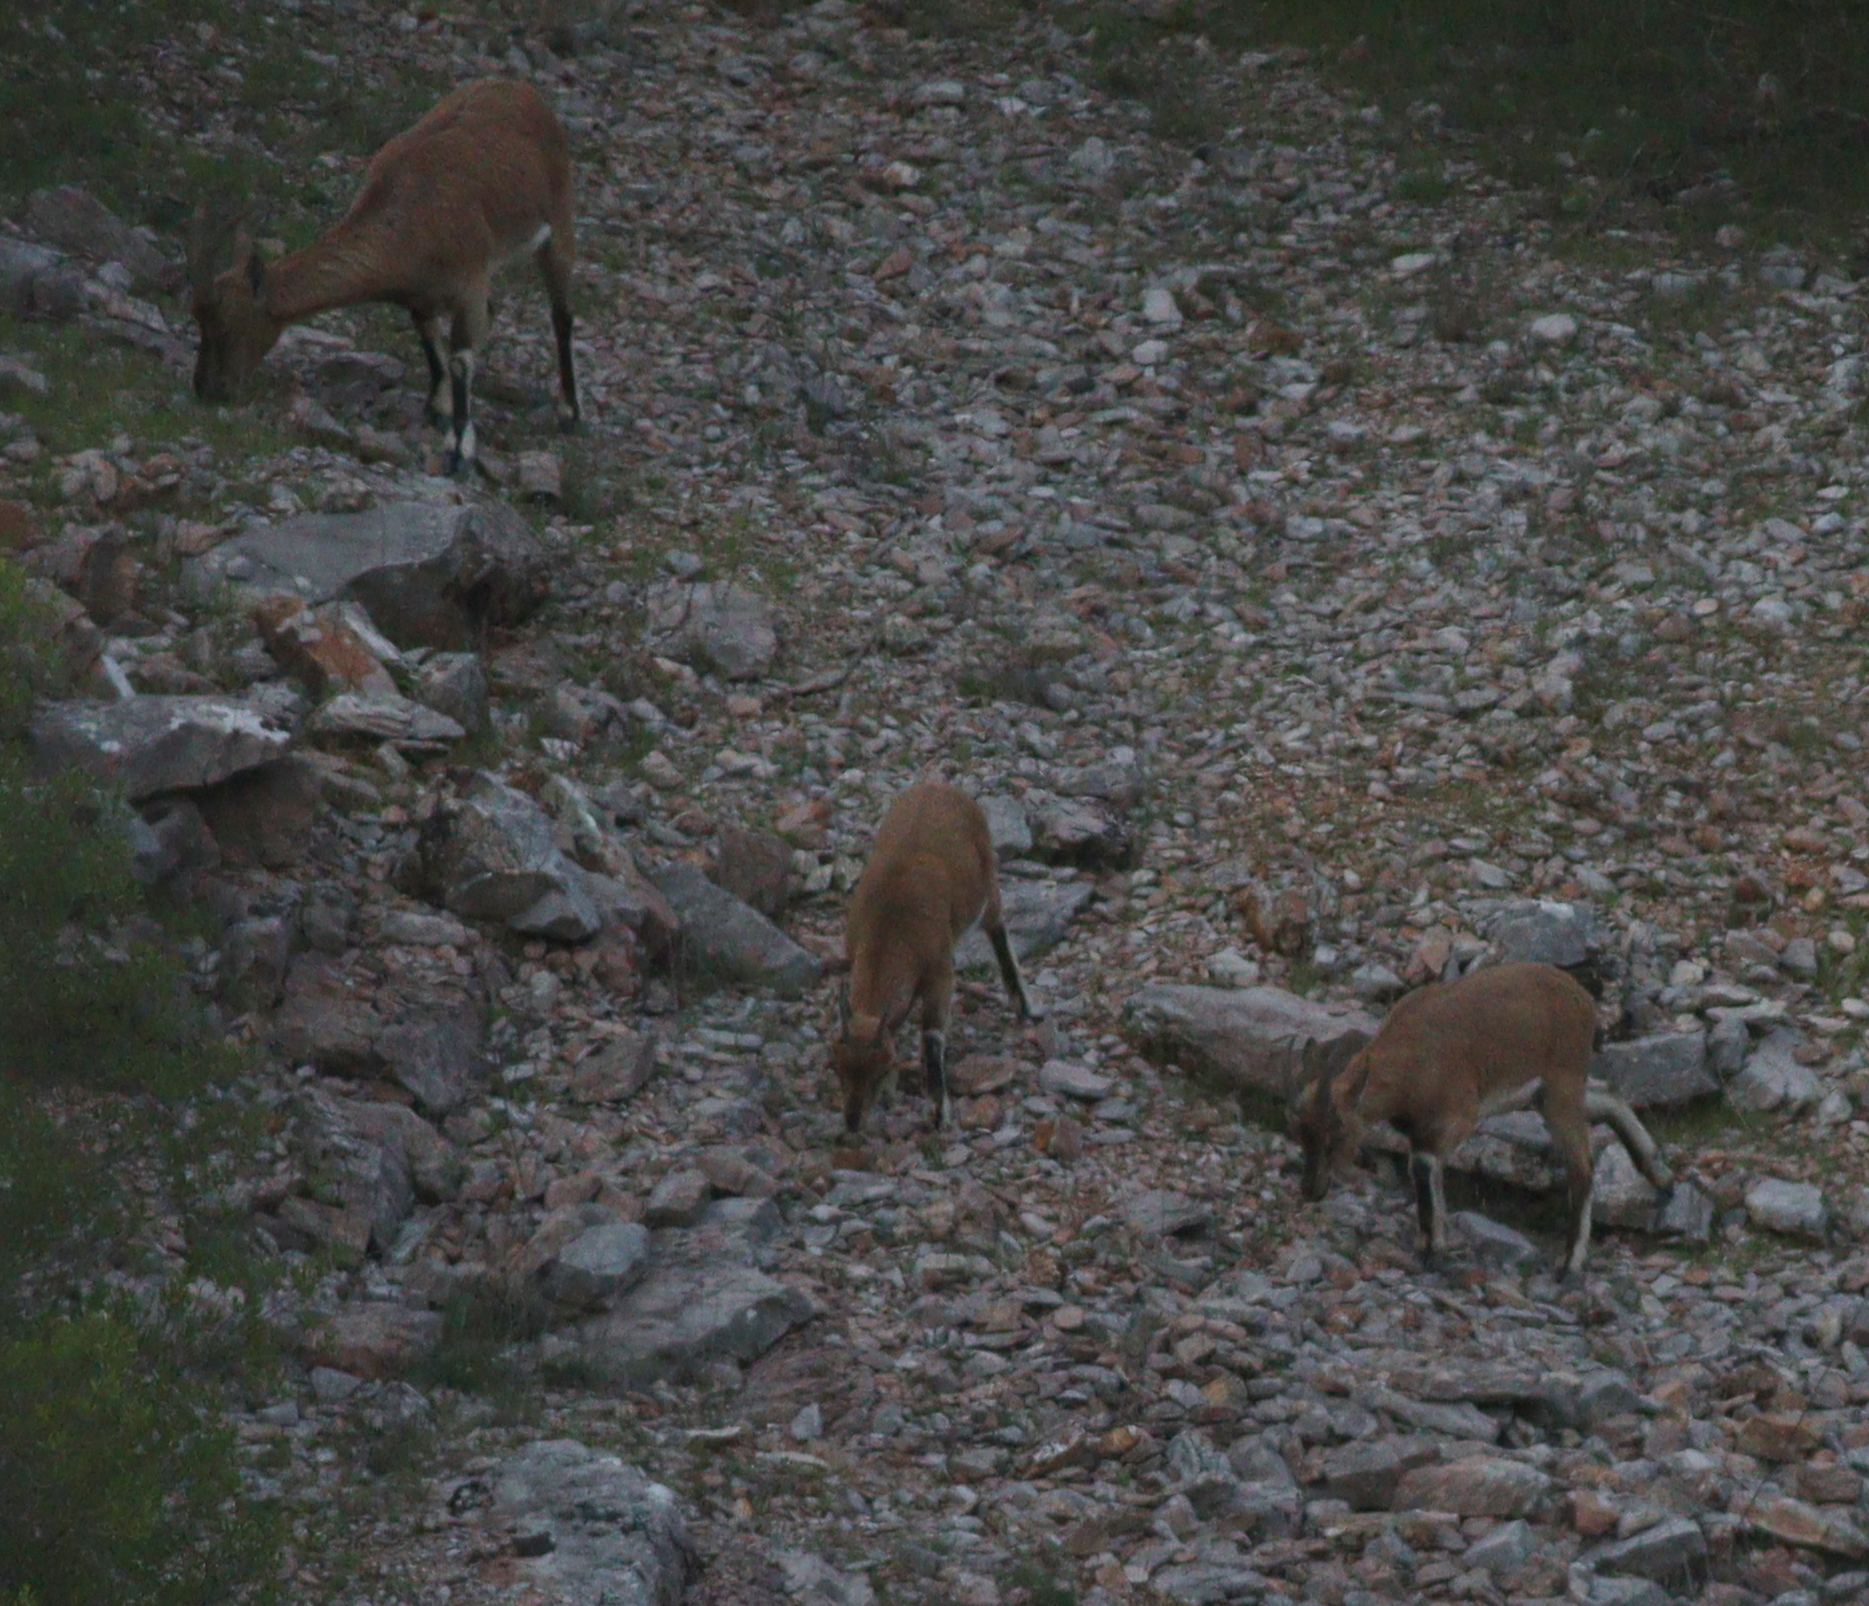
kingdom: Animalia
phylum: Chordata
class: Mammalia
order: Artiodactyla
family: Bovidae
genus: Capra
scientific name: Capra hircus
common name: Domestic goat
